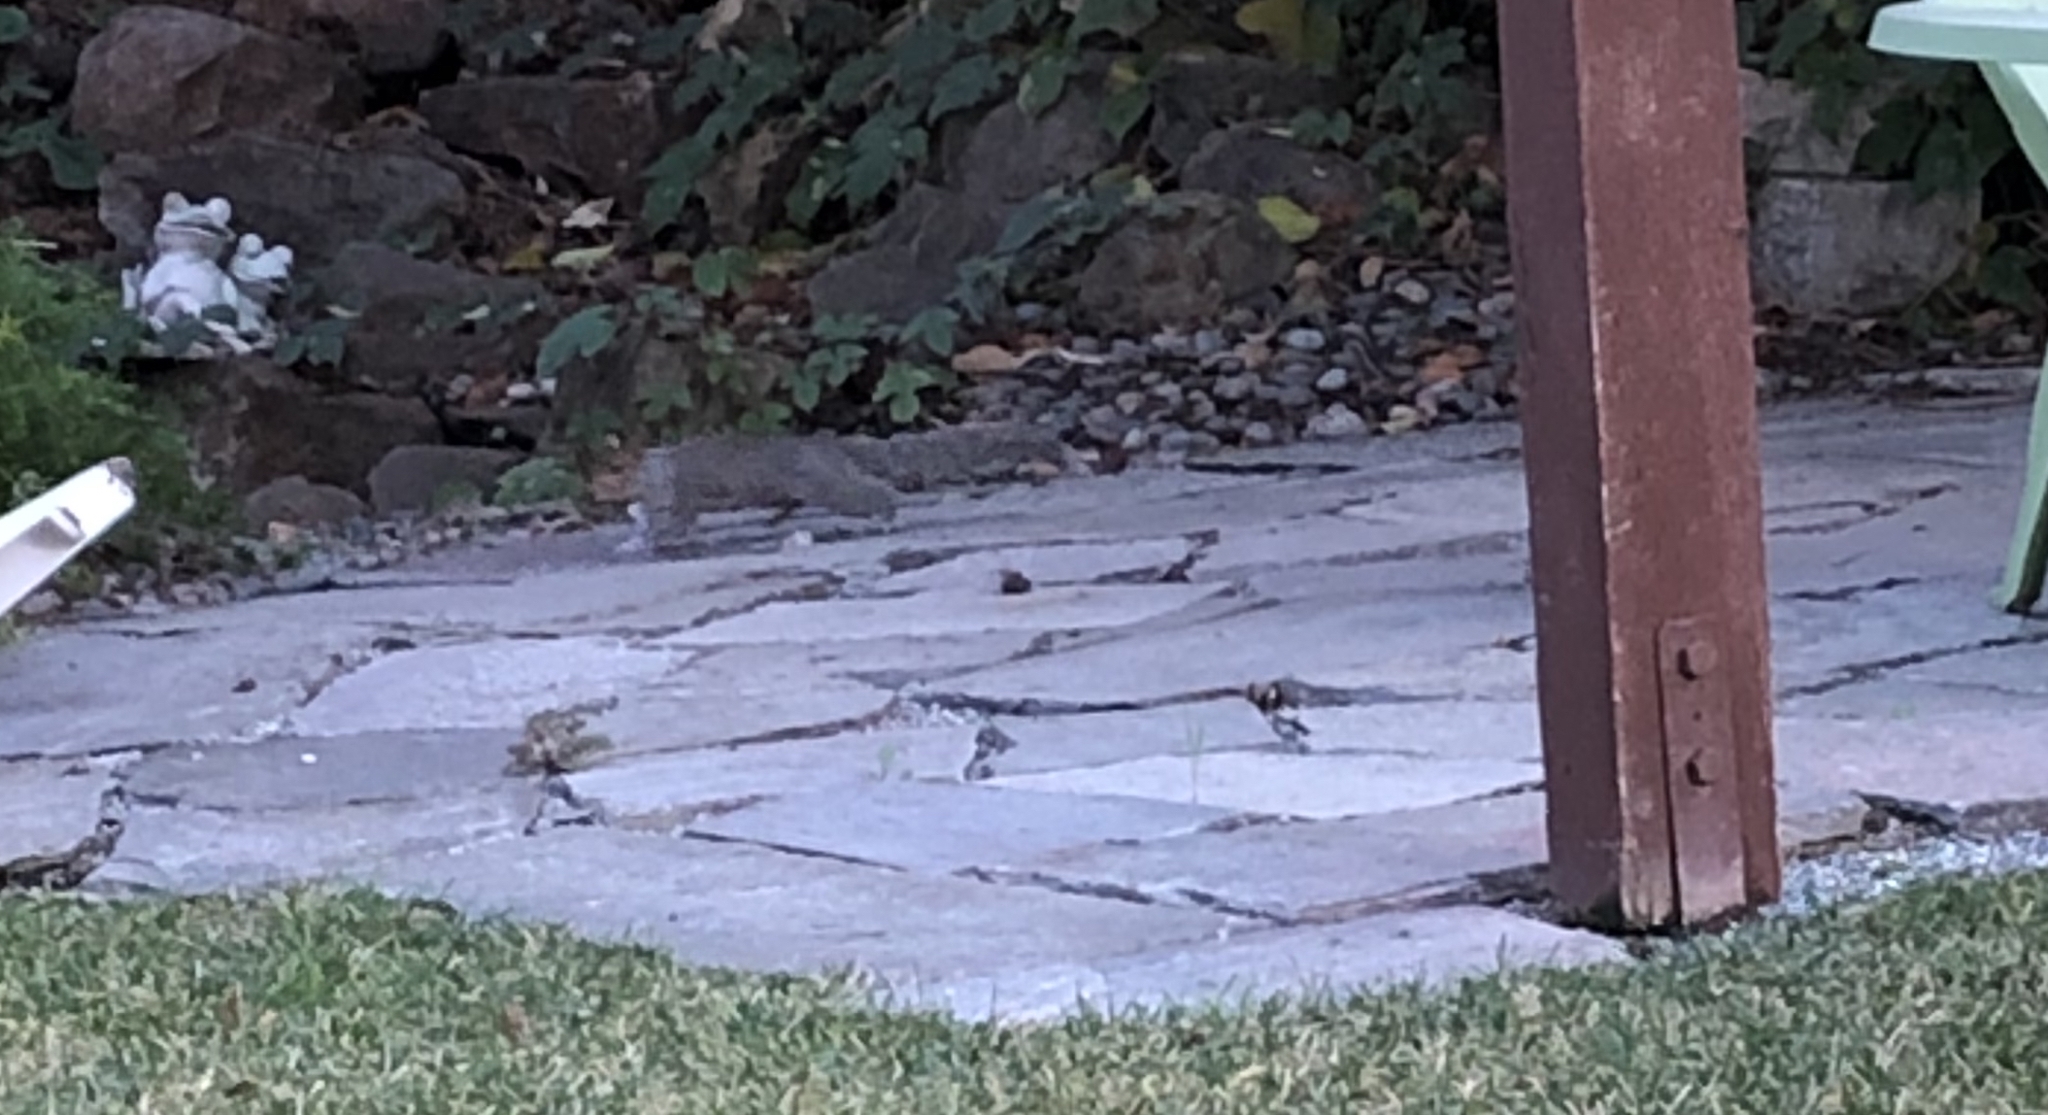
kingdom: Animalia
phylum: Chordata
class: Mammalia
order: Rodentia
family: Sciuridae
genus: Sciurus
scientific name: Sciurus carolinensis
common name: Eastern gray squirrel
